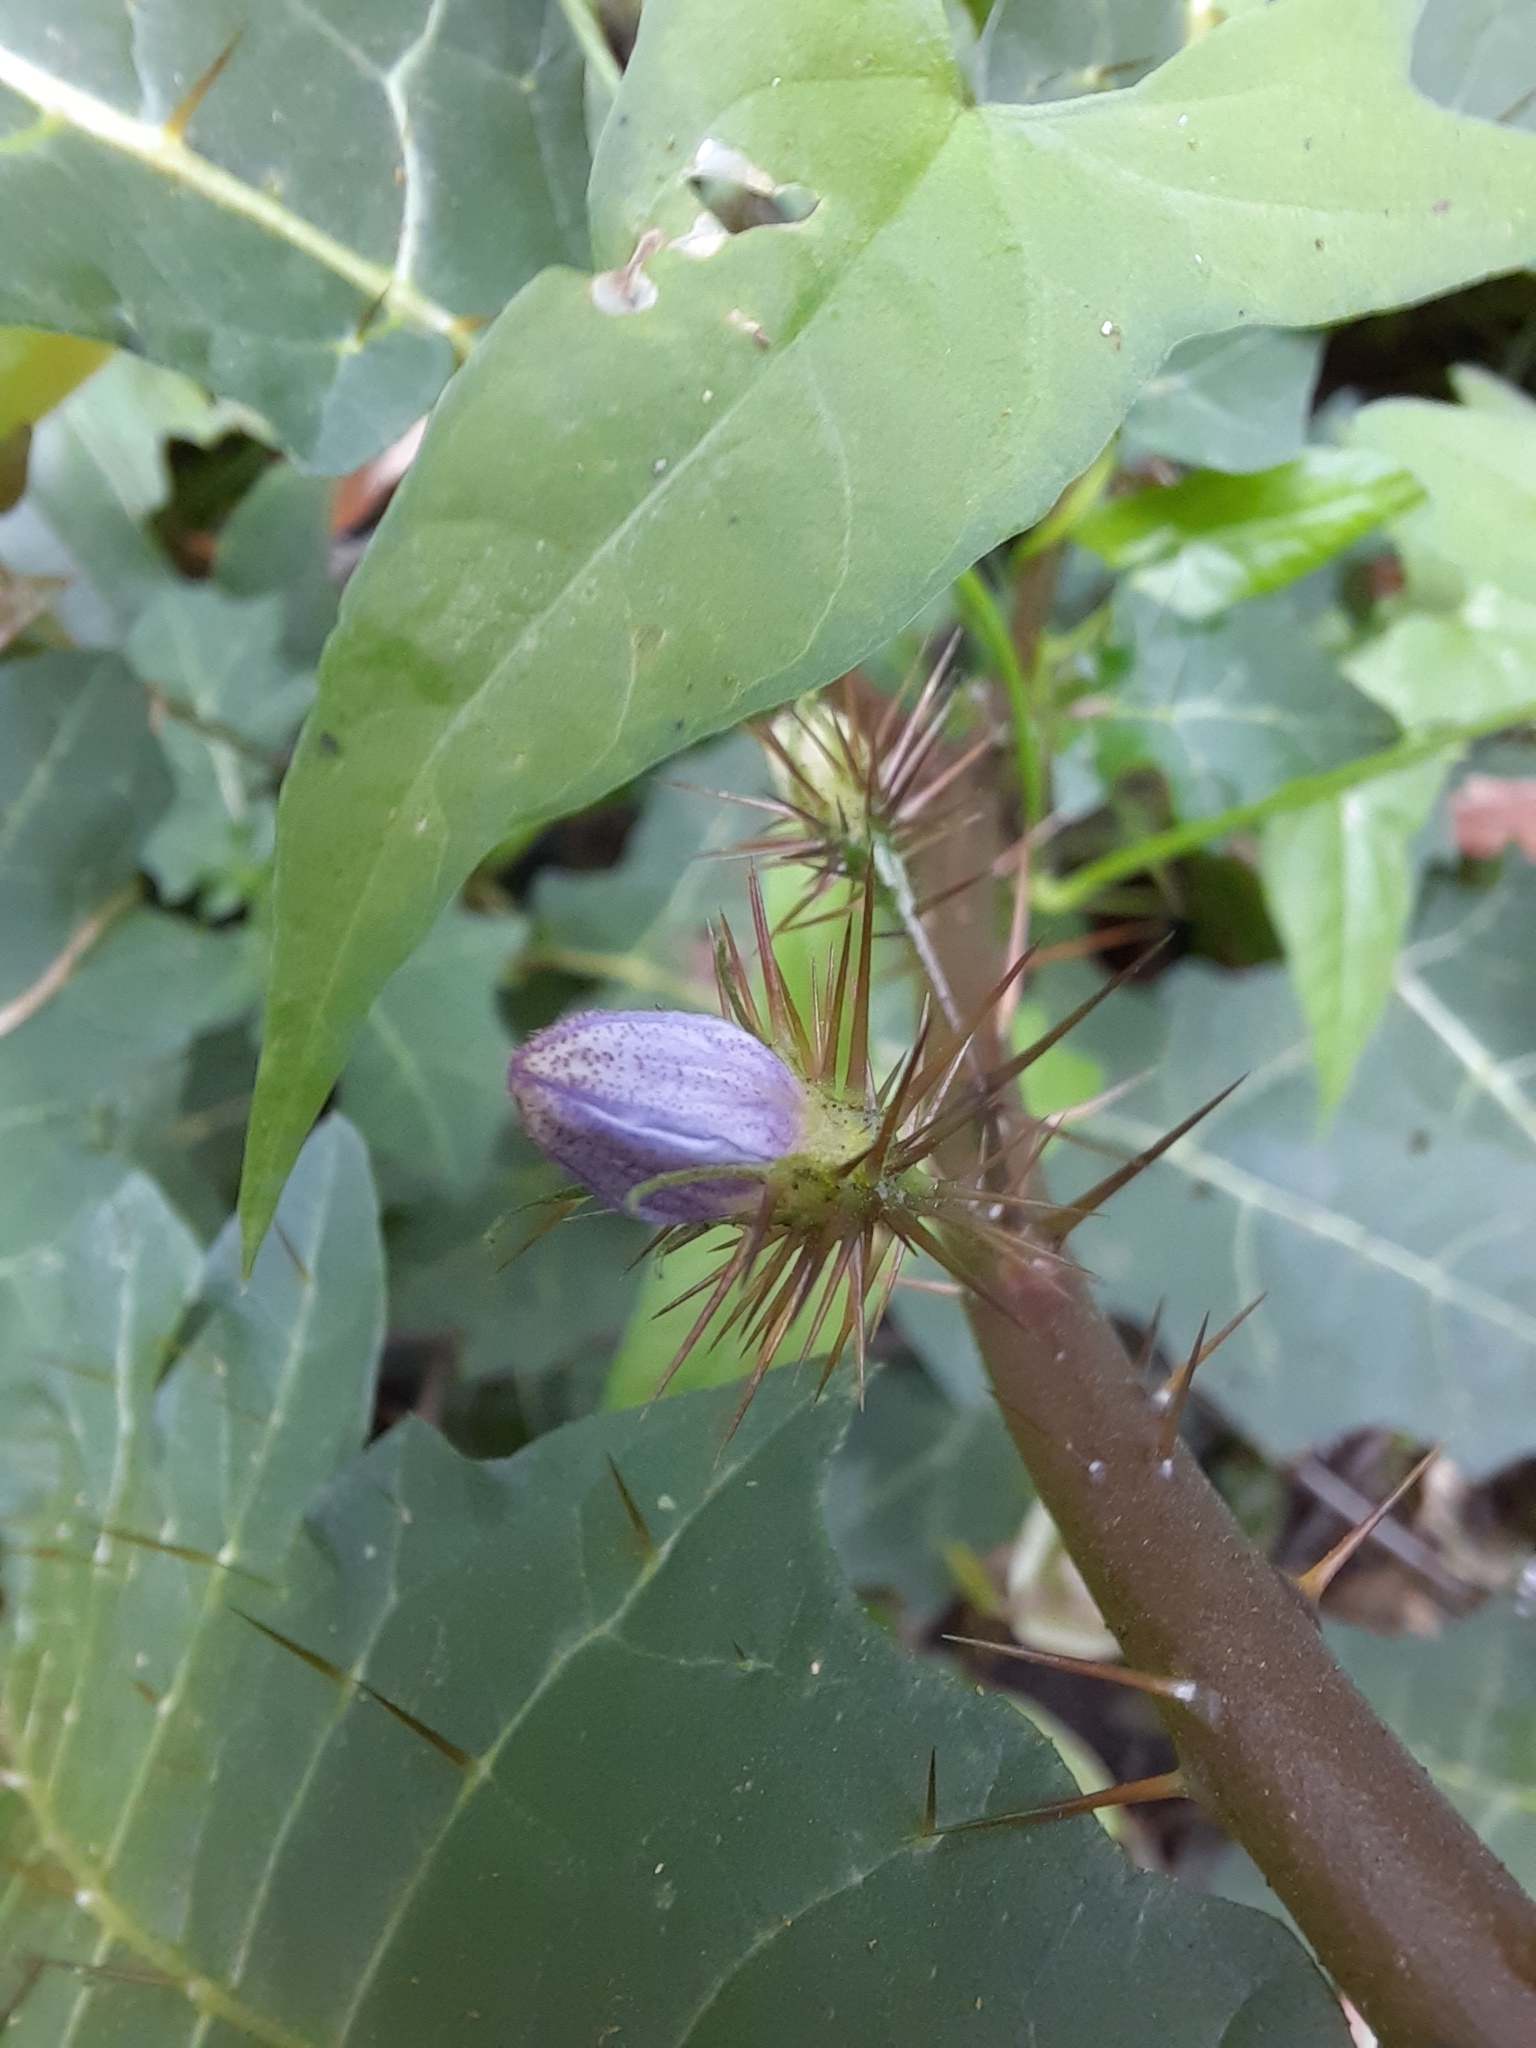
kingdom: Plantae
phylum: Tracheophyta
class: Magnoliopsida
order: Solanales
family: Solanaceae
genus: Solanum
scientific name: Solanum prinophyllum
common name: Forest nightshade
